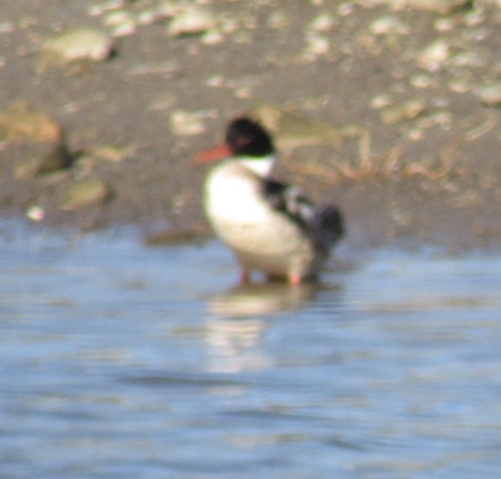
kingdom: Animalia
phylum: Chordata
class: Aves
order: Anseriformes
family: Anatidae
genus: Mergus
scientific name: Mergus serrator
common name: Red-breasted merganser
